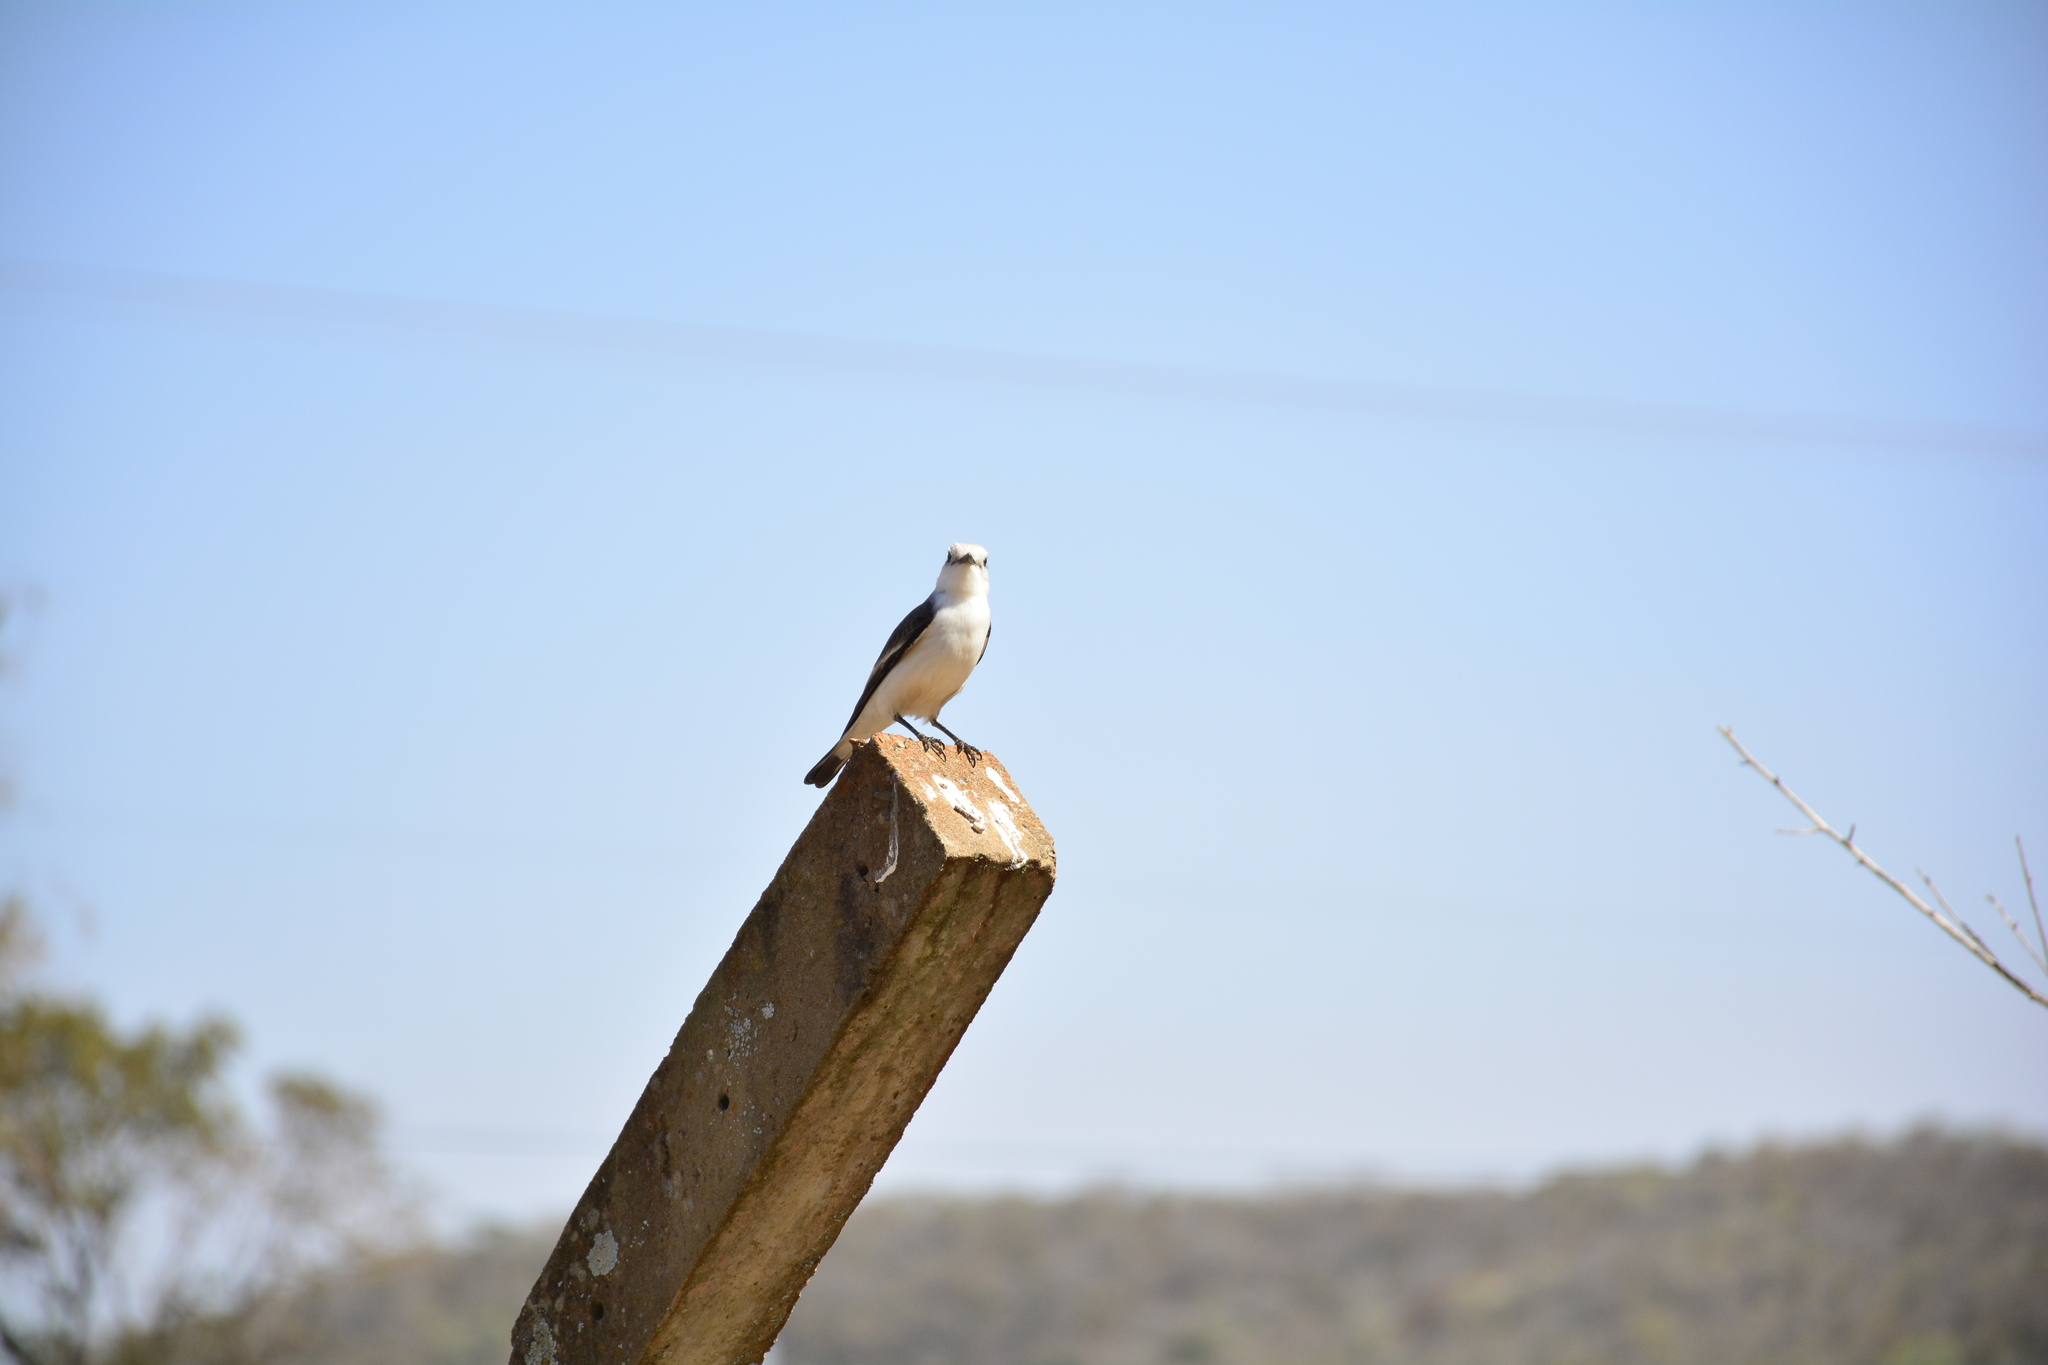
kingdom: Animalia
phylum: Chordata
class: Aves
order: Passeriformes
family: Tyrannidae
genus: Xolmis
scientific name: Xolmis velatus
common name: White-rumped monjita
